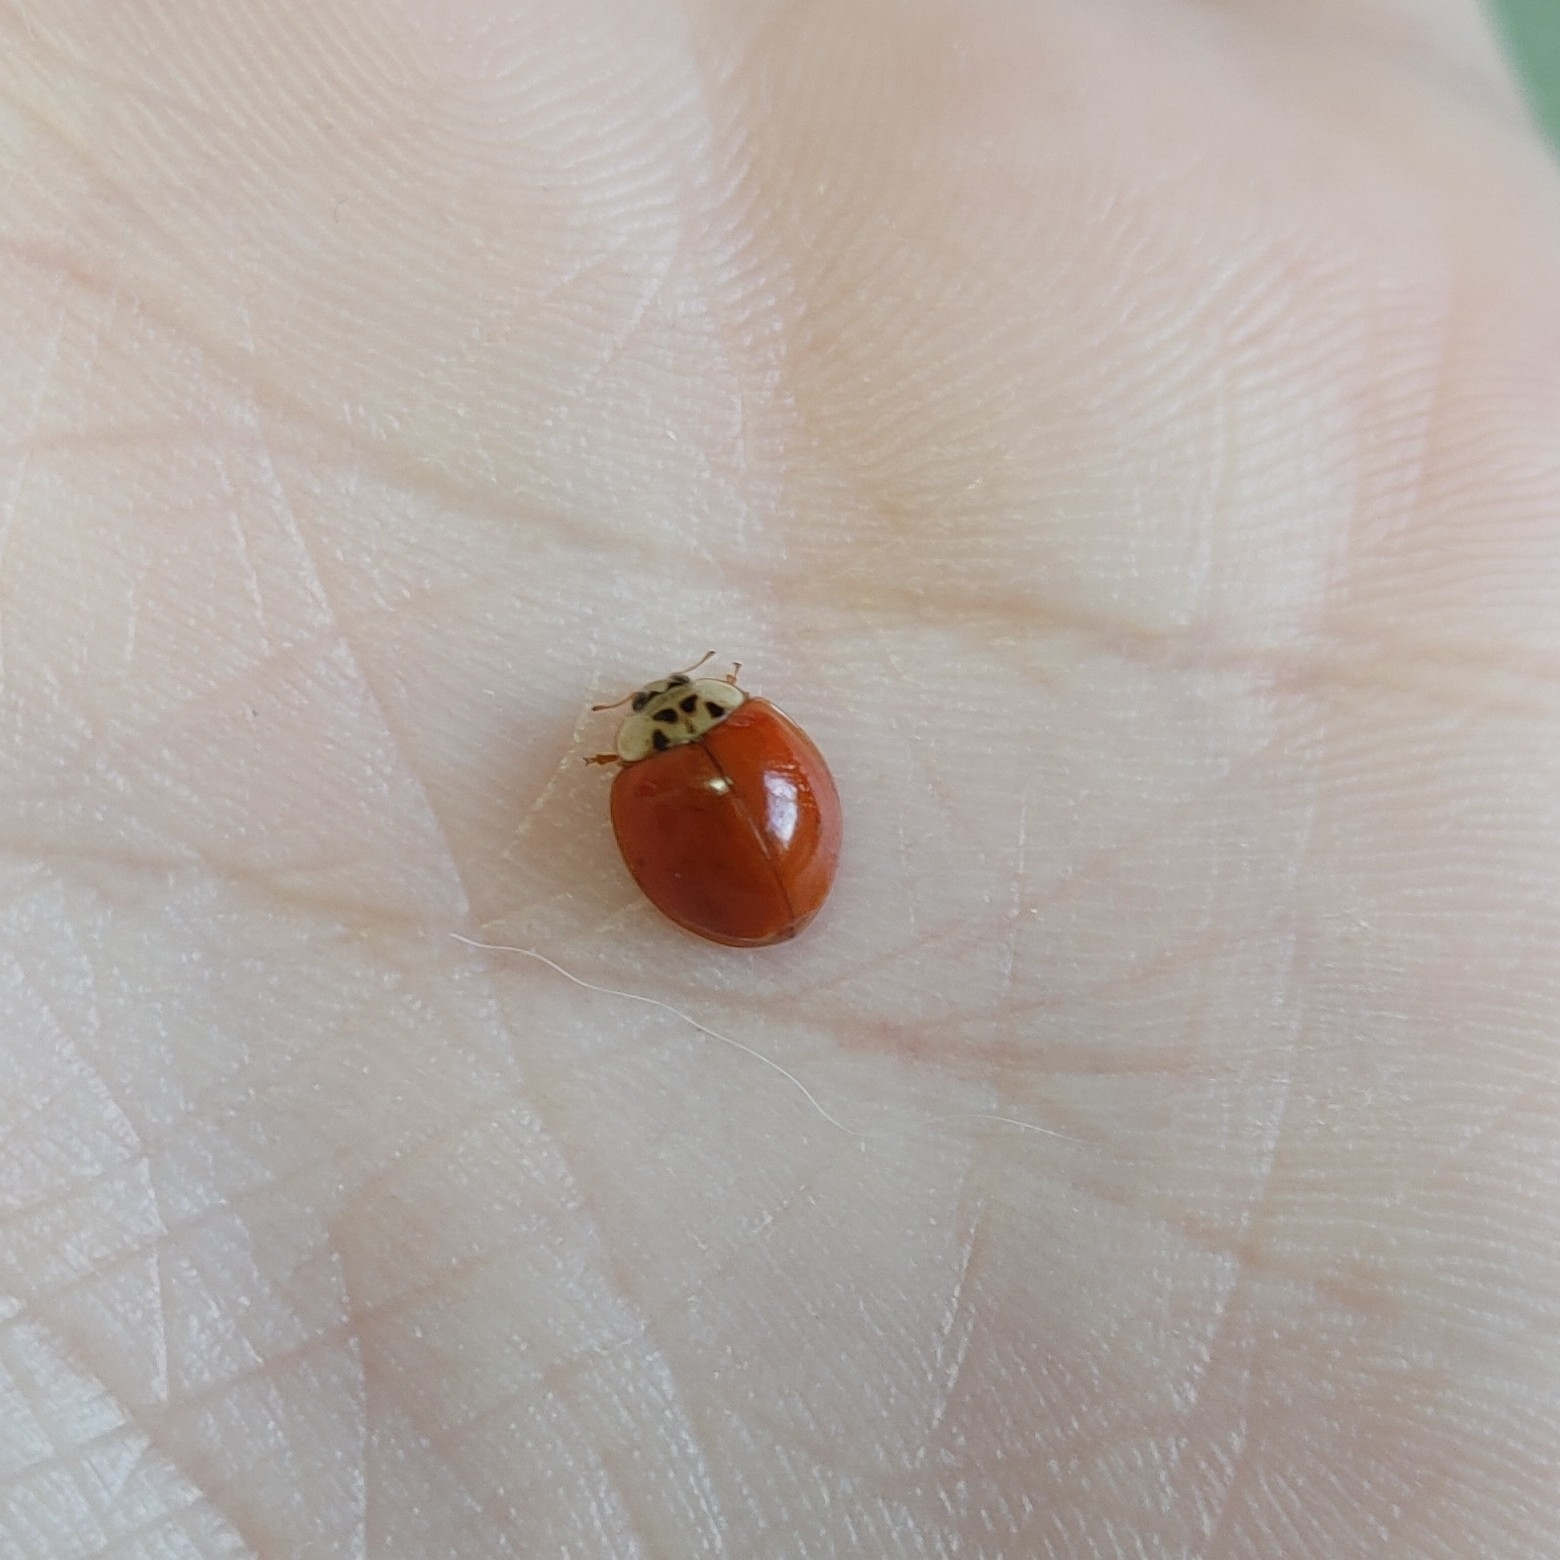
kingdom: Animalia
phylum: Arthropoda
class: Insecta
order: Coleoptera
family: Coccinellidae
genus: Harmonia
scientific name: Harmonia axyridis
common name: Harlequin ladybird
